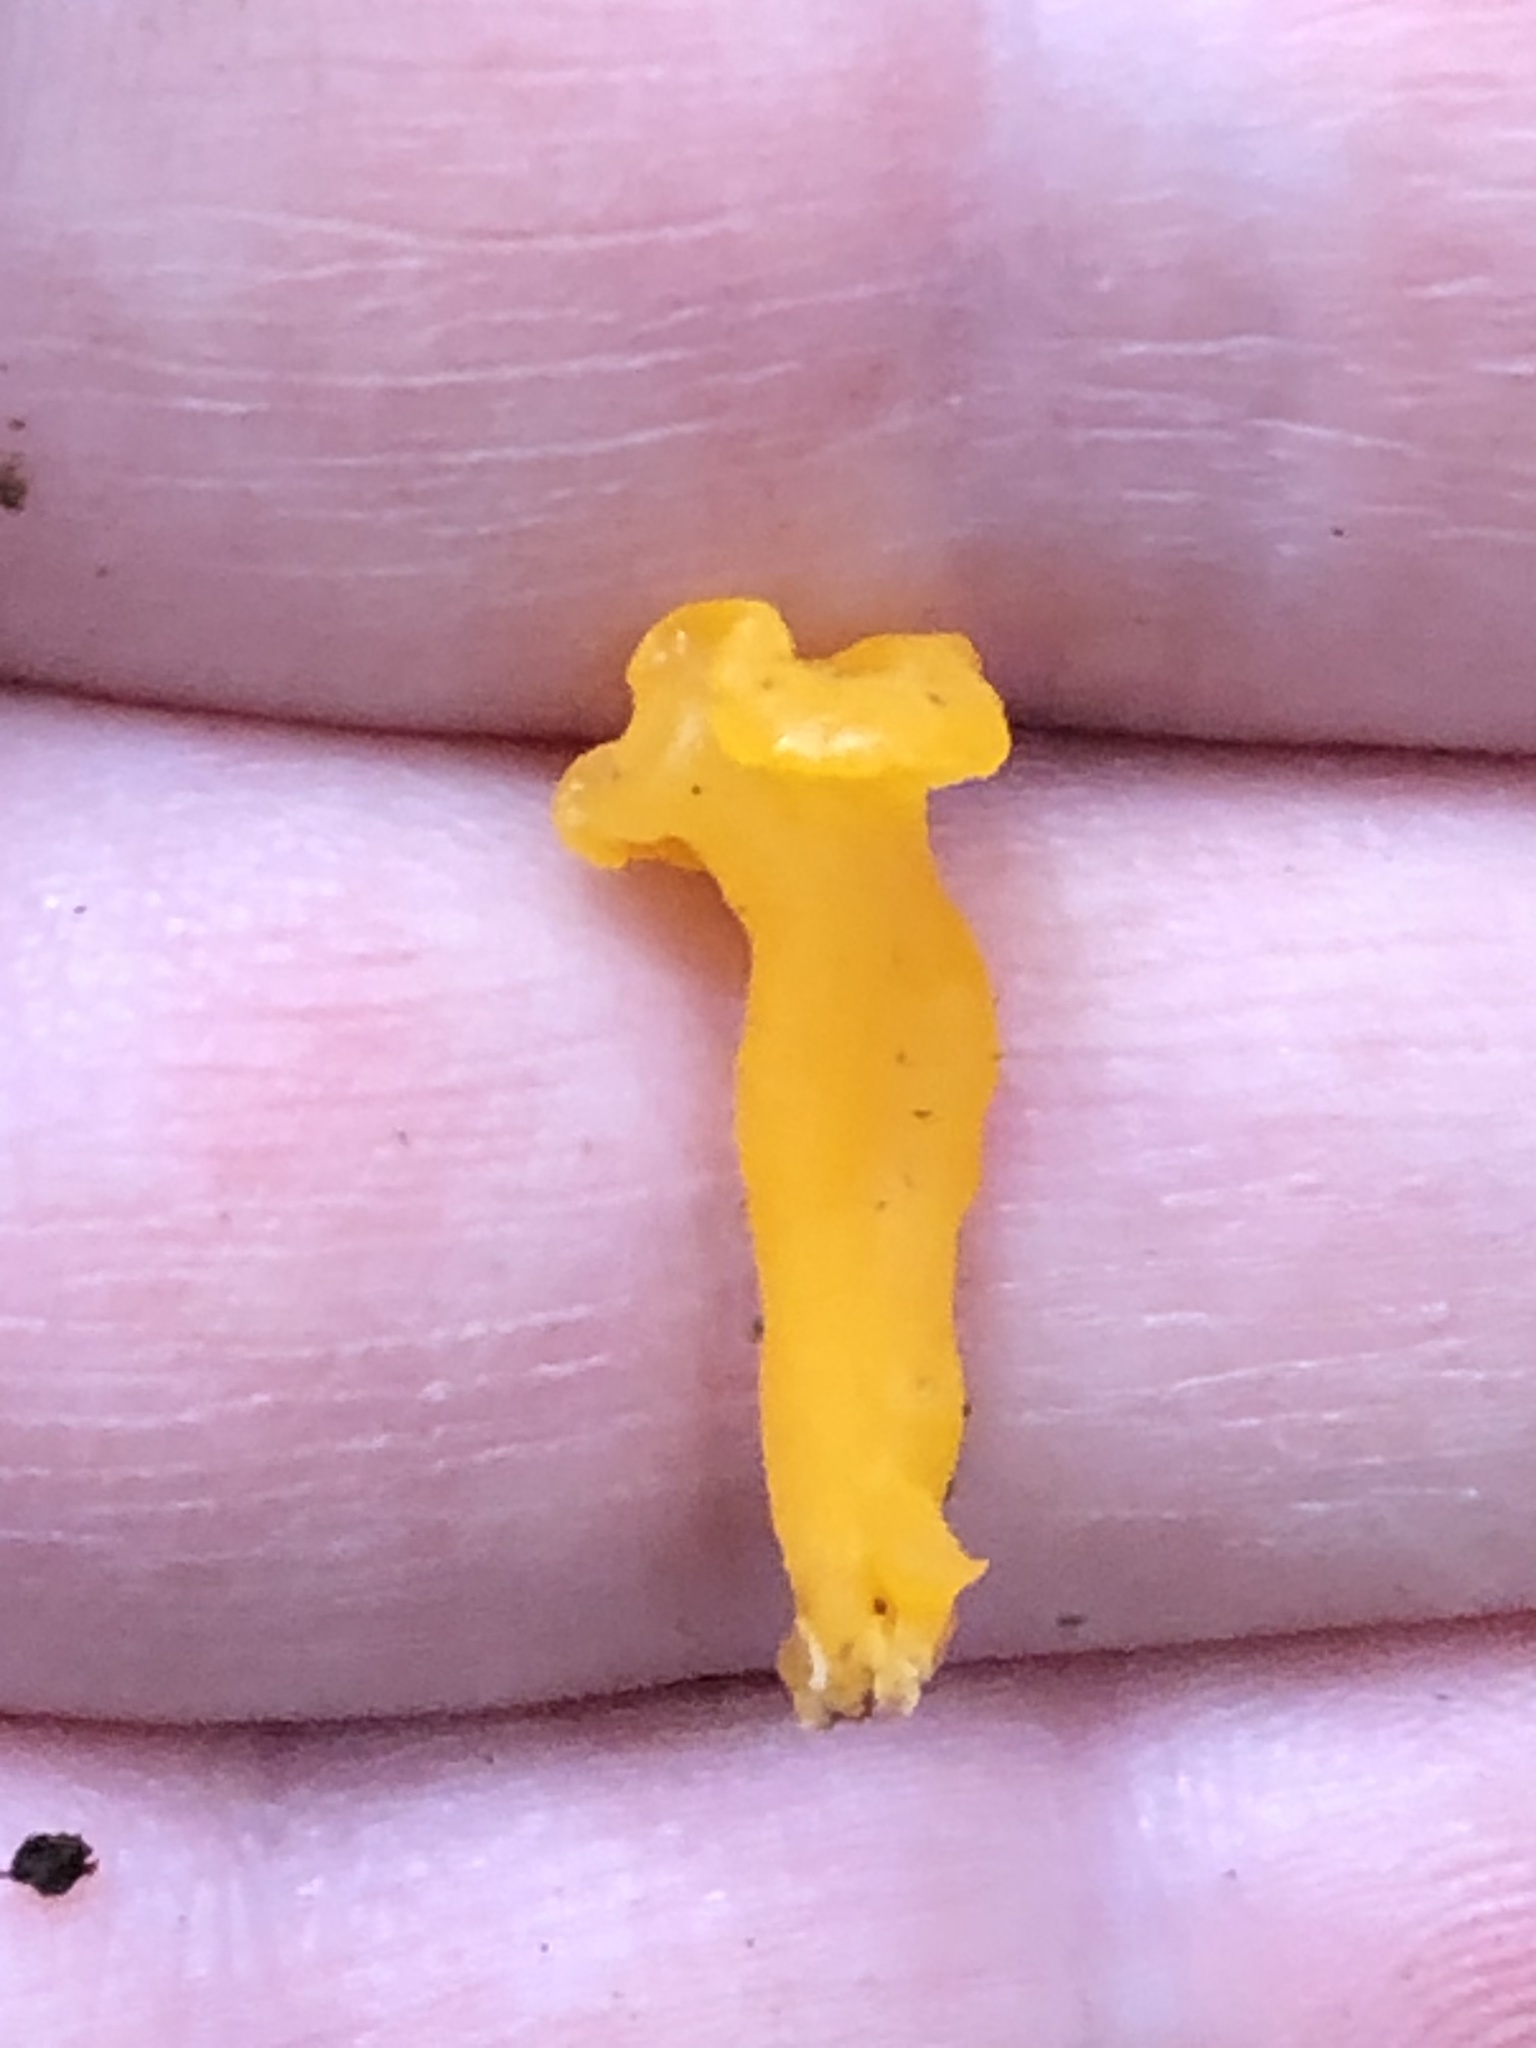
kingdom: Fungi
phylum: Basidiomycota
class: Dacrymycetes
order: Dacrymycetales
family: Dacrymycetaceae
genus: Dacrymyces
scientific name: Dacrymyces spathularius
